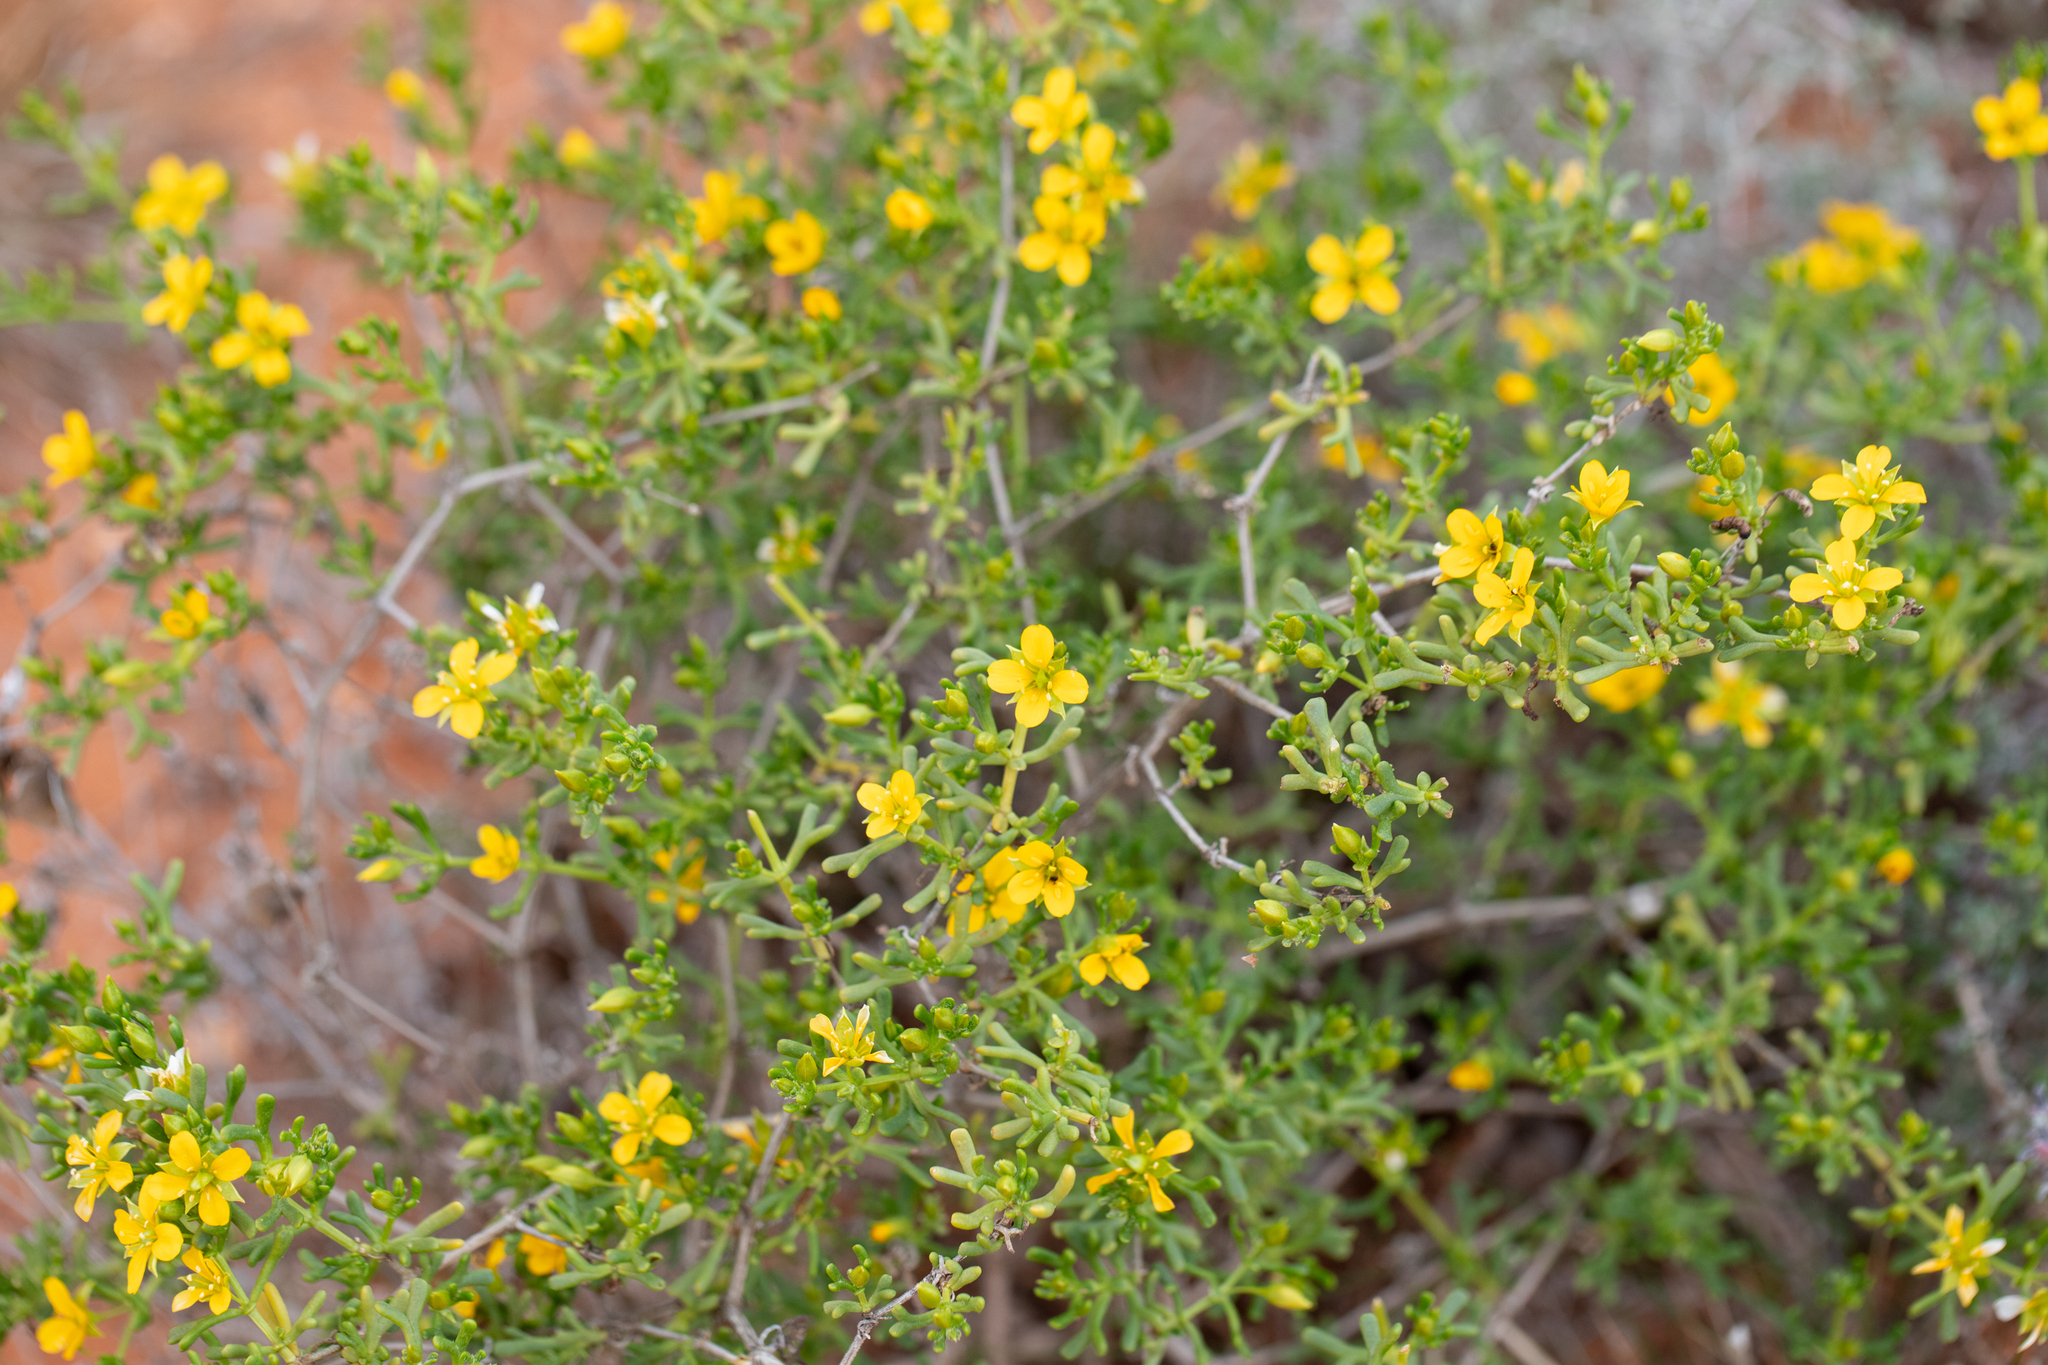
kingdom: Plantae
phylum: Tracheophyta
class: Magnoliopsida
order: Zygophyllales
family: Zygophyllaceae
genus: Roepera
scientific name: Roepera aurantiaca
